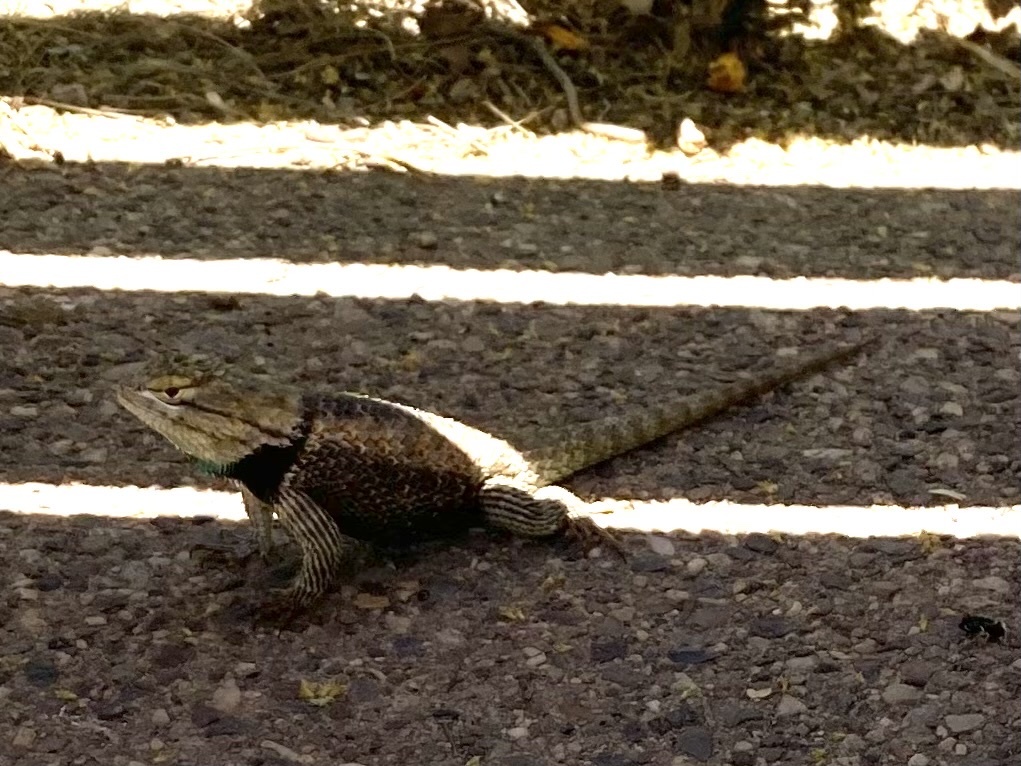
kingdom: Animalia
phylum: Chordata
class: Squamata
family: Phrynosomatidae
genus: Sceloporus
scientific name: Sceloporus magister
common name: Desert spiny lizard
